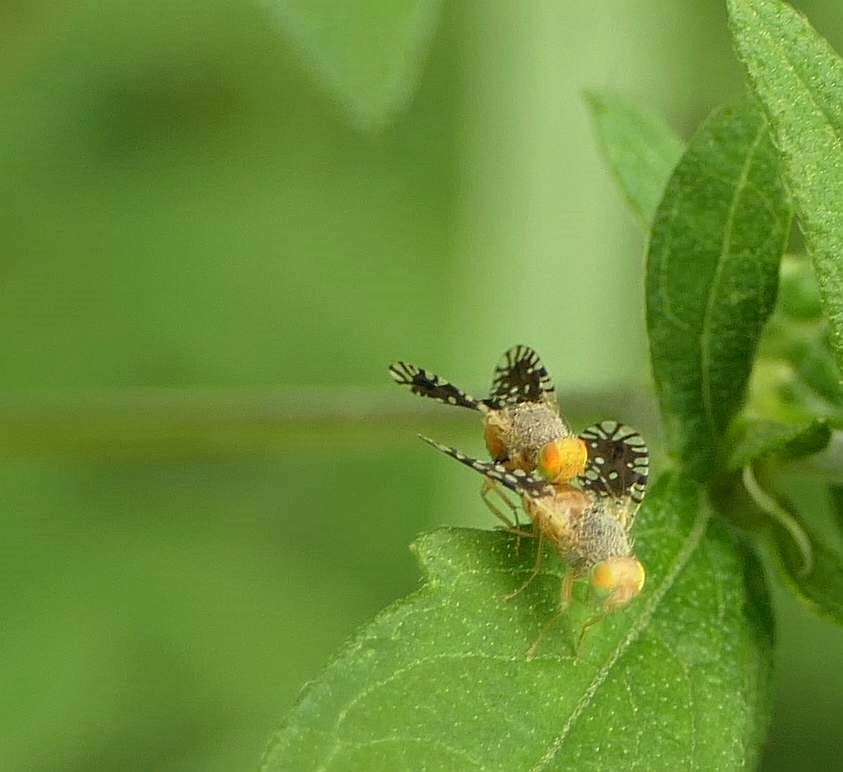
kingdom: Animalia
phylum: Arthropoda
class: Insecta
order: Diptera
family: Tephritidae
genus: Euaresta
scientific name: Euaresta bella
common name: Common ragweed fruit fly
